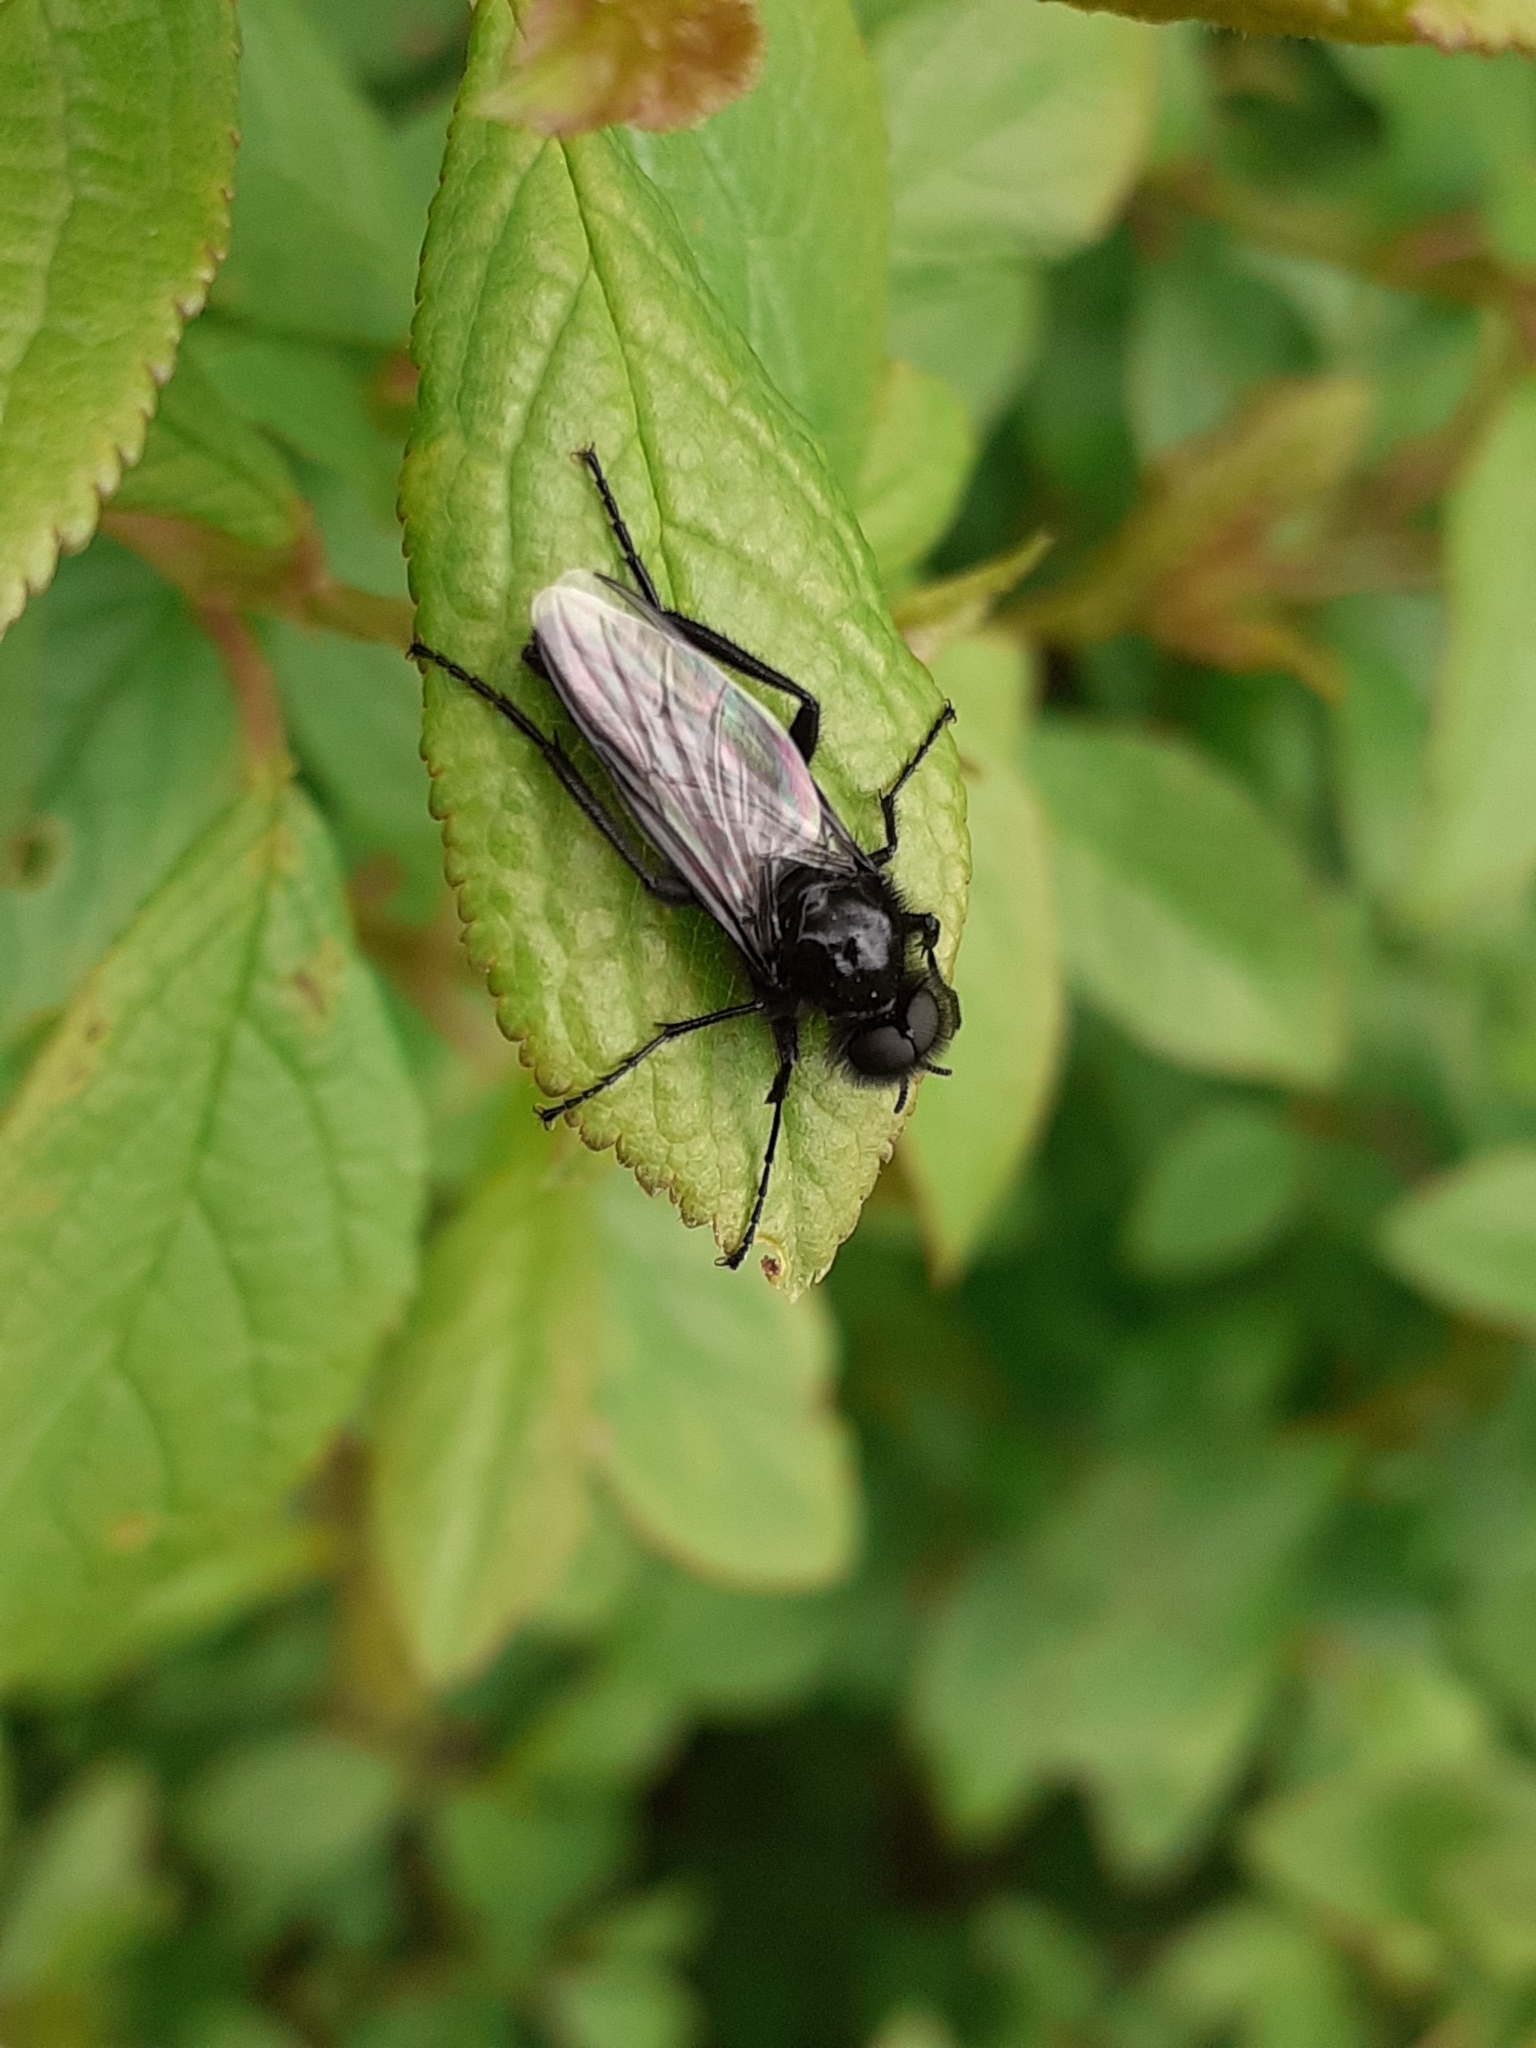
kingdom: Animalia
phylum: Arthropoda
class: Insecta
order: Diptera
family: Bibionidae
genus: Bibio
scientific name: Bibio marci
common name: St marks fly
